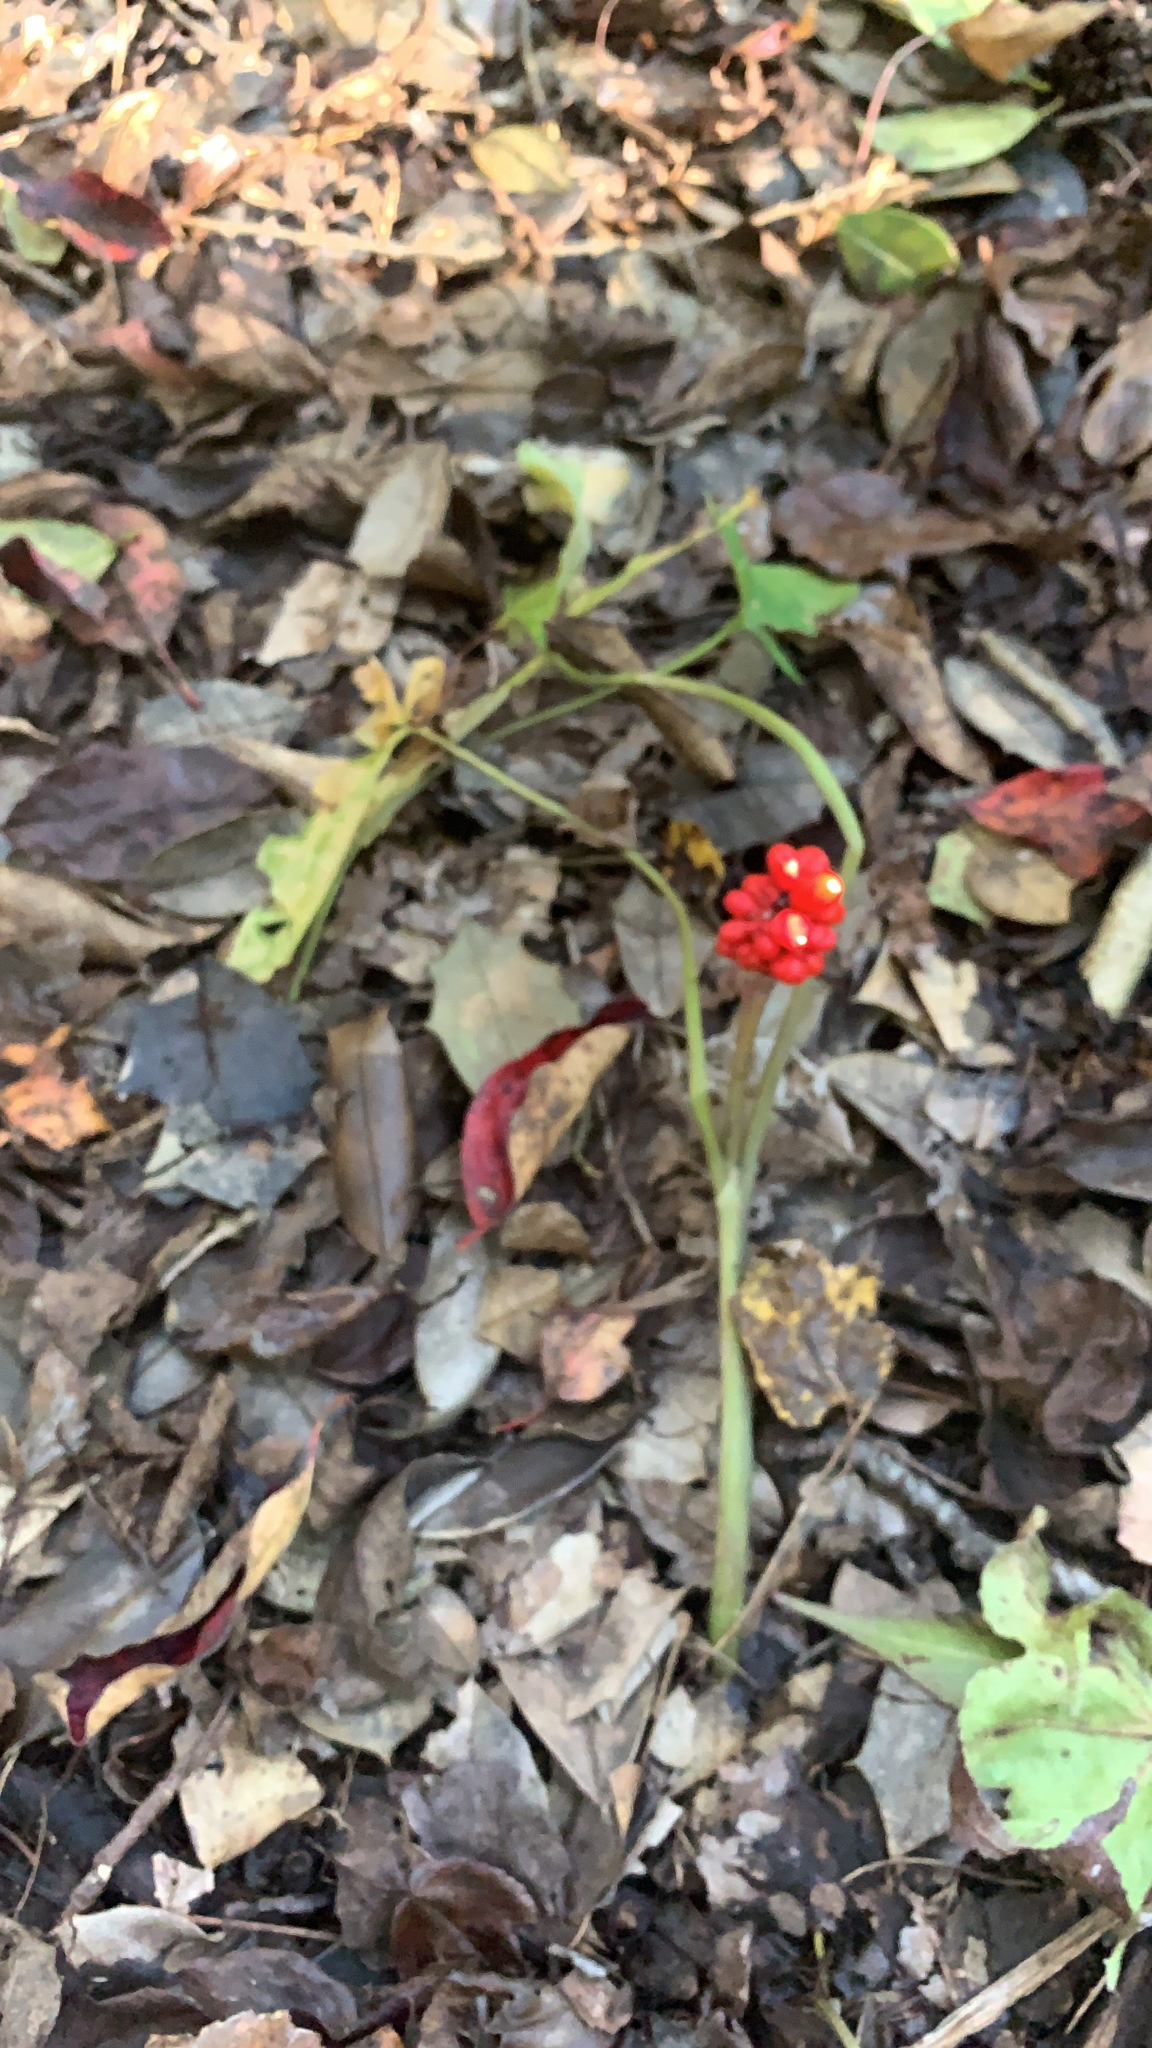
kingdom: Plantae
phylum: Tracheophyta
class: Liliopsida
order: Alismatales
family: Araceae
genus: Arisaema
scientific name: Arisaema triphyllum
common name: Jack-in-the-pulpit
